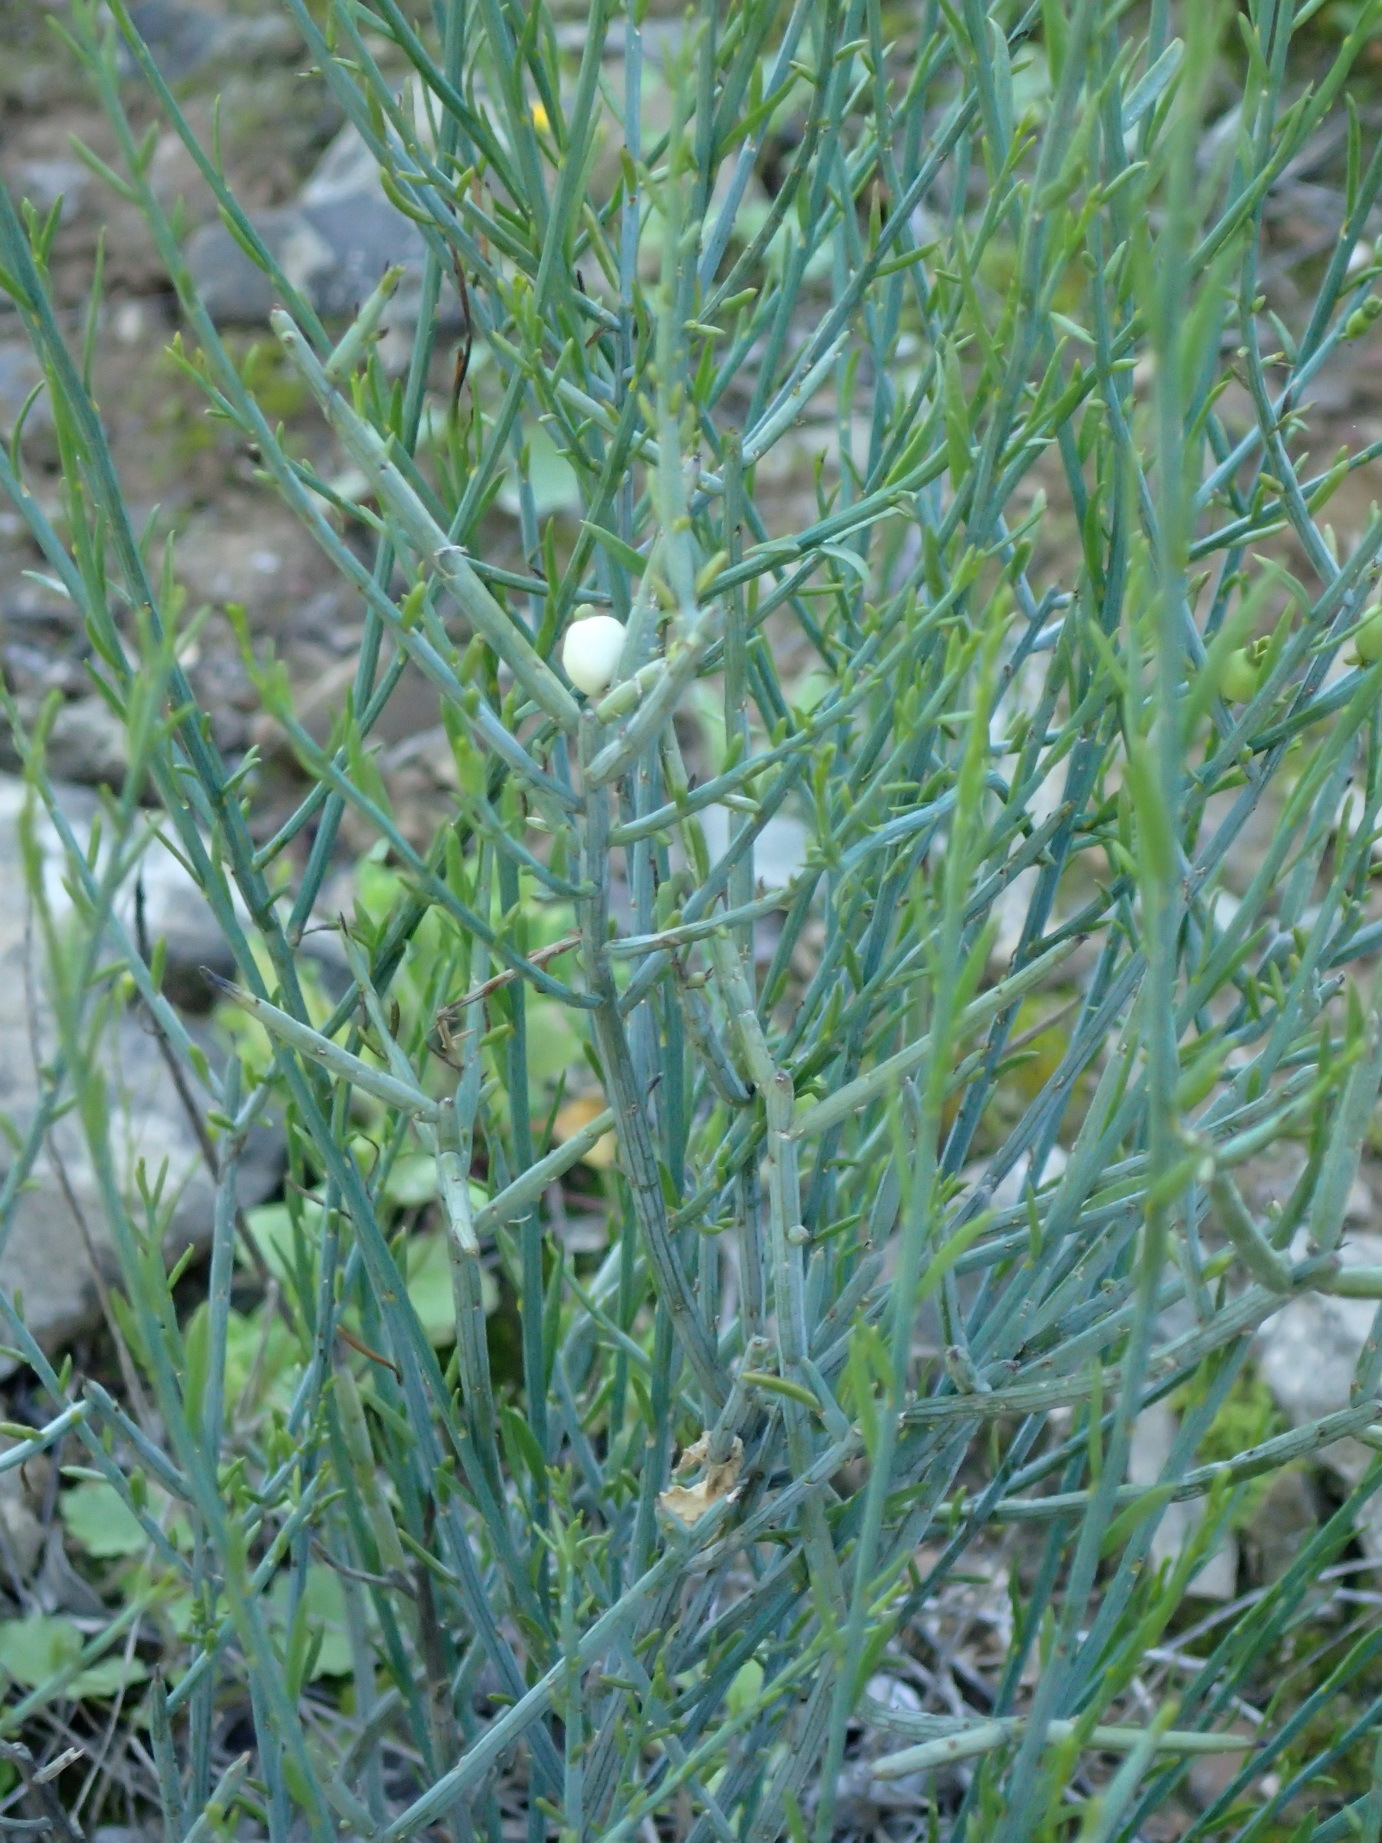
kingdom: Plantae
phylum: Tracheophyta
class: Magnoliopsida
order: Santalales
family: Thesiaceae
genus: Lacomucinaea
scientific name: Lacomucinaea lineata
